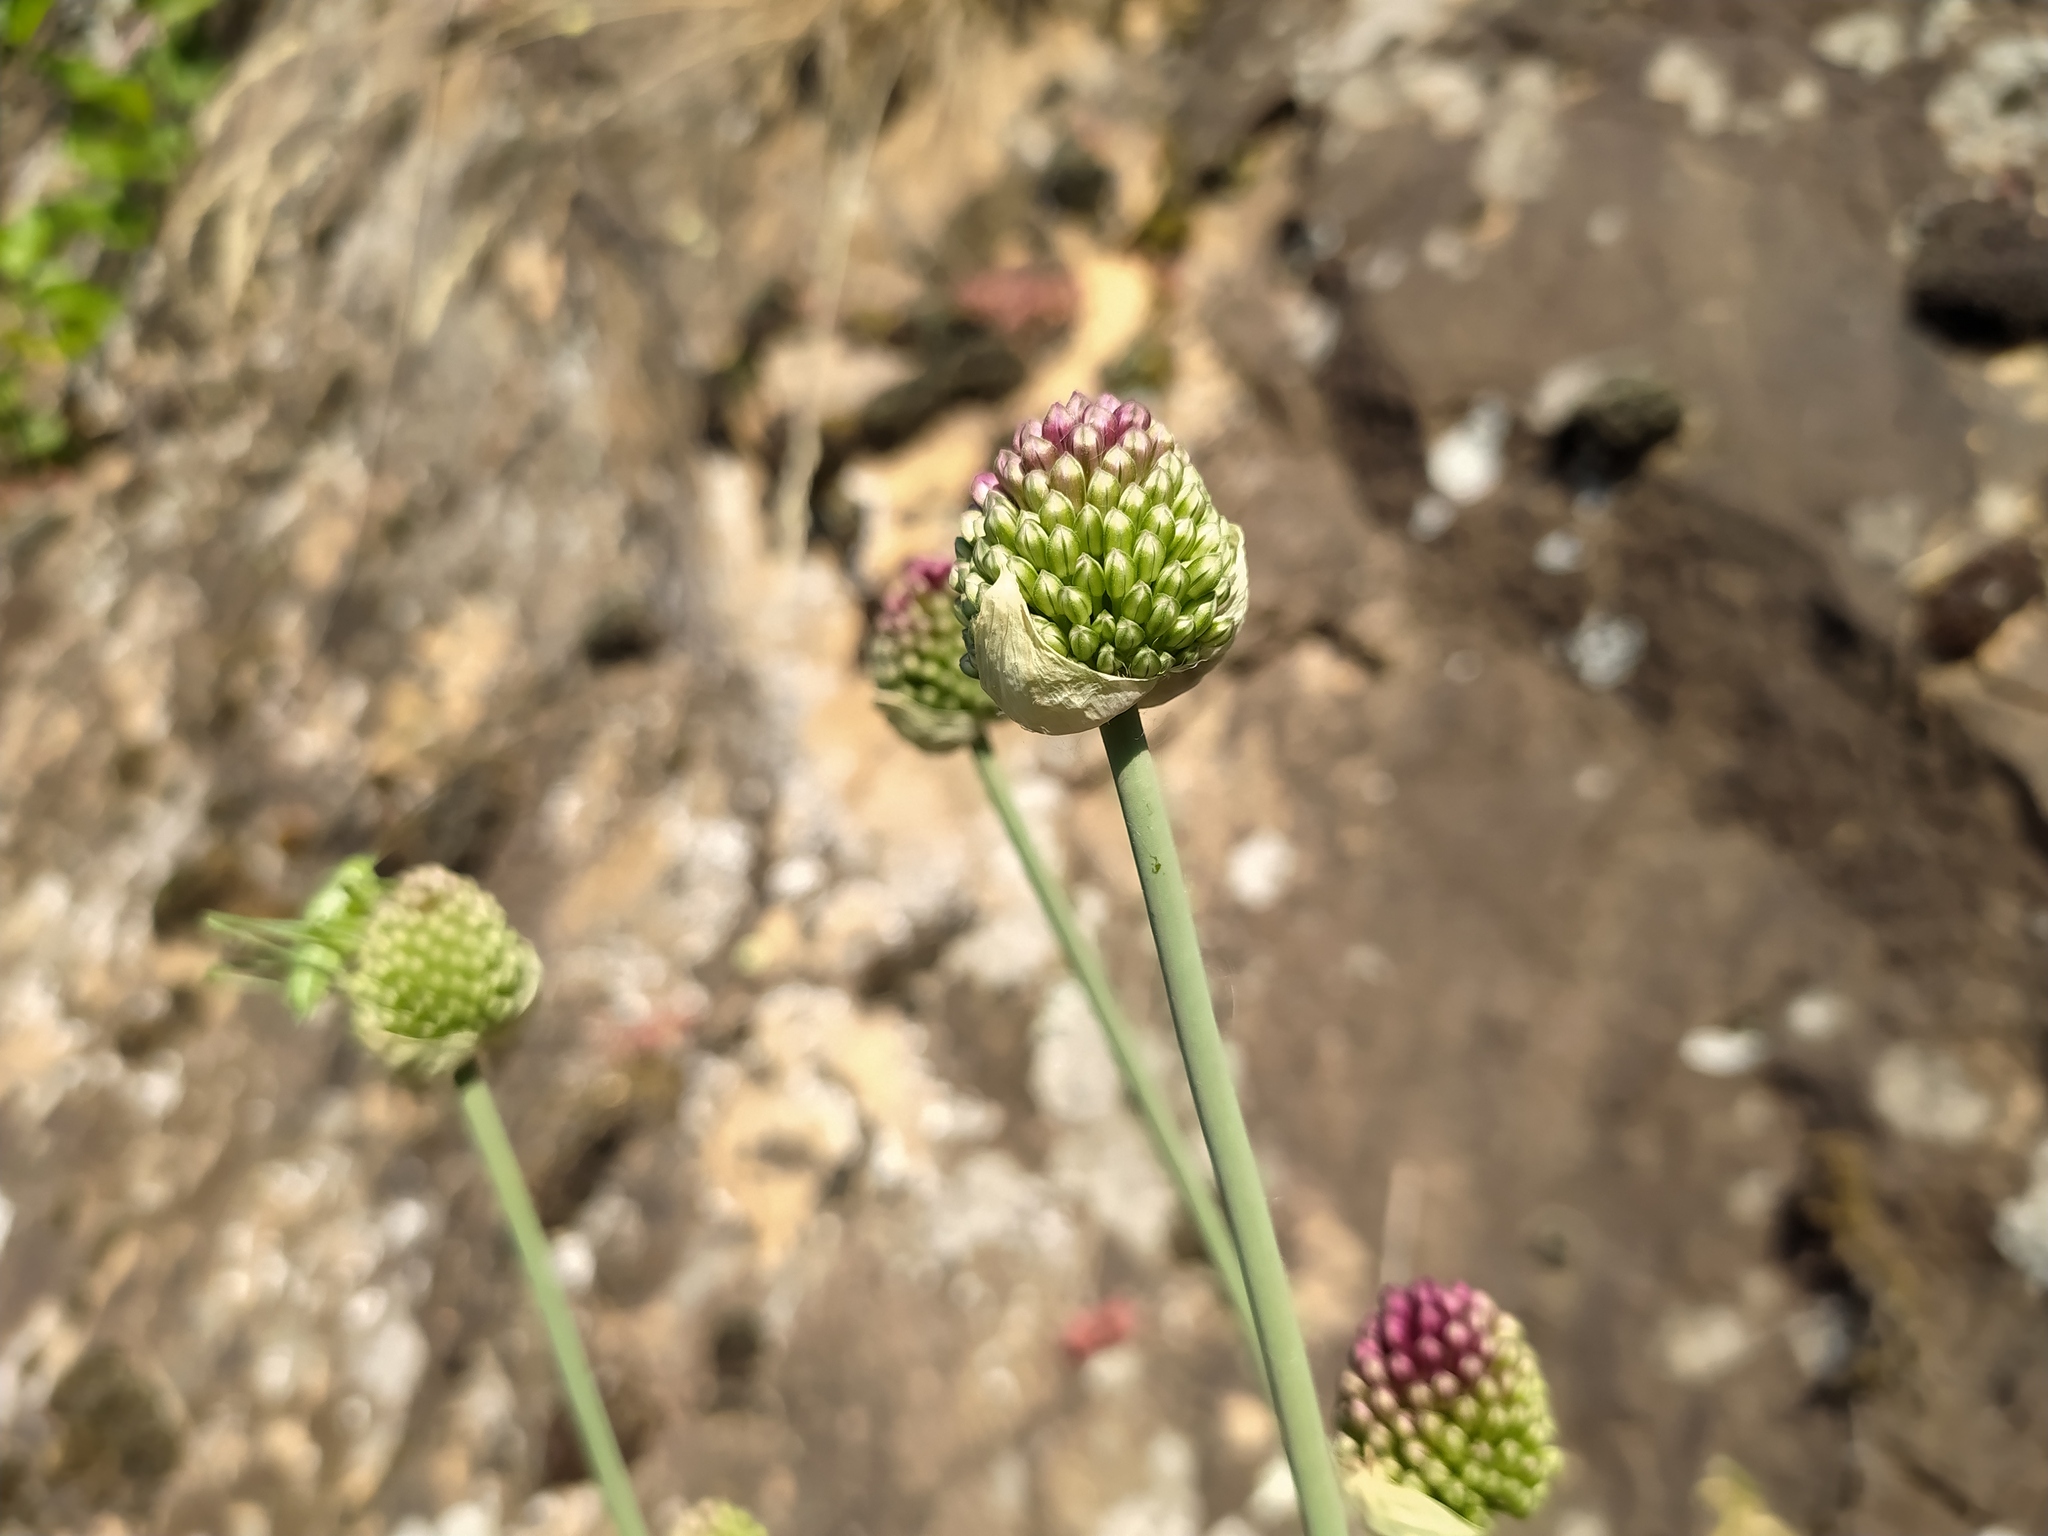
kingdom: Plantae
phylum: Tracheophyta
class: Liliopsida
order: Asparagales
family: Amaryllidaceae
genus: Allium
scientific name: Allium sphaerocephalon
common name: Round-headed leek
